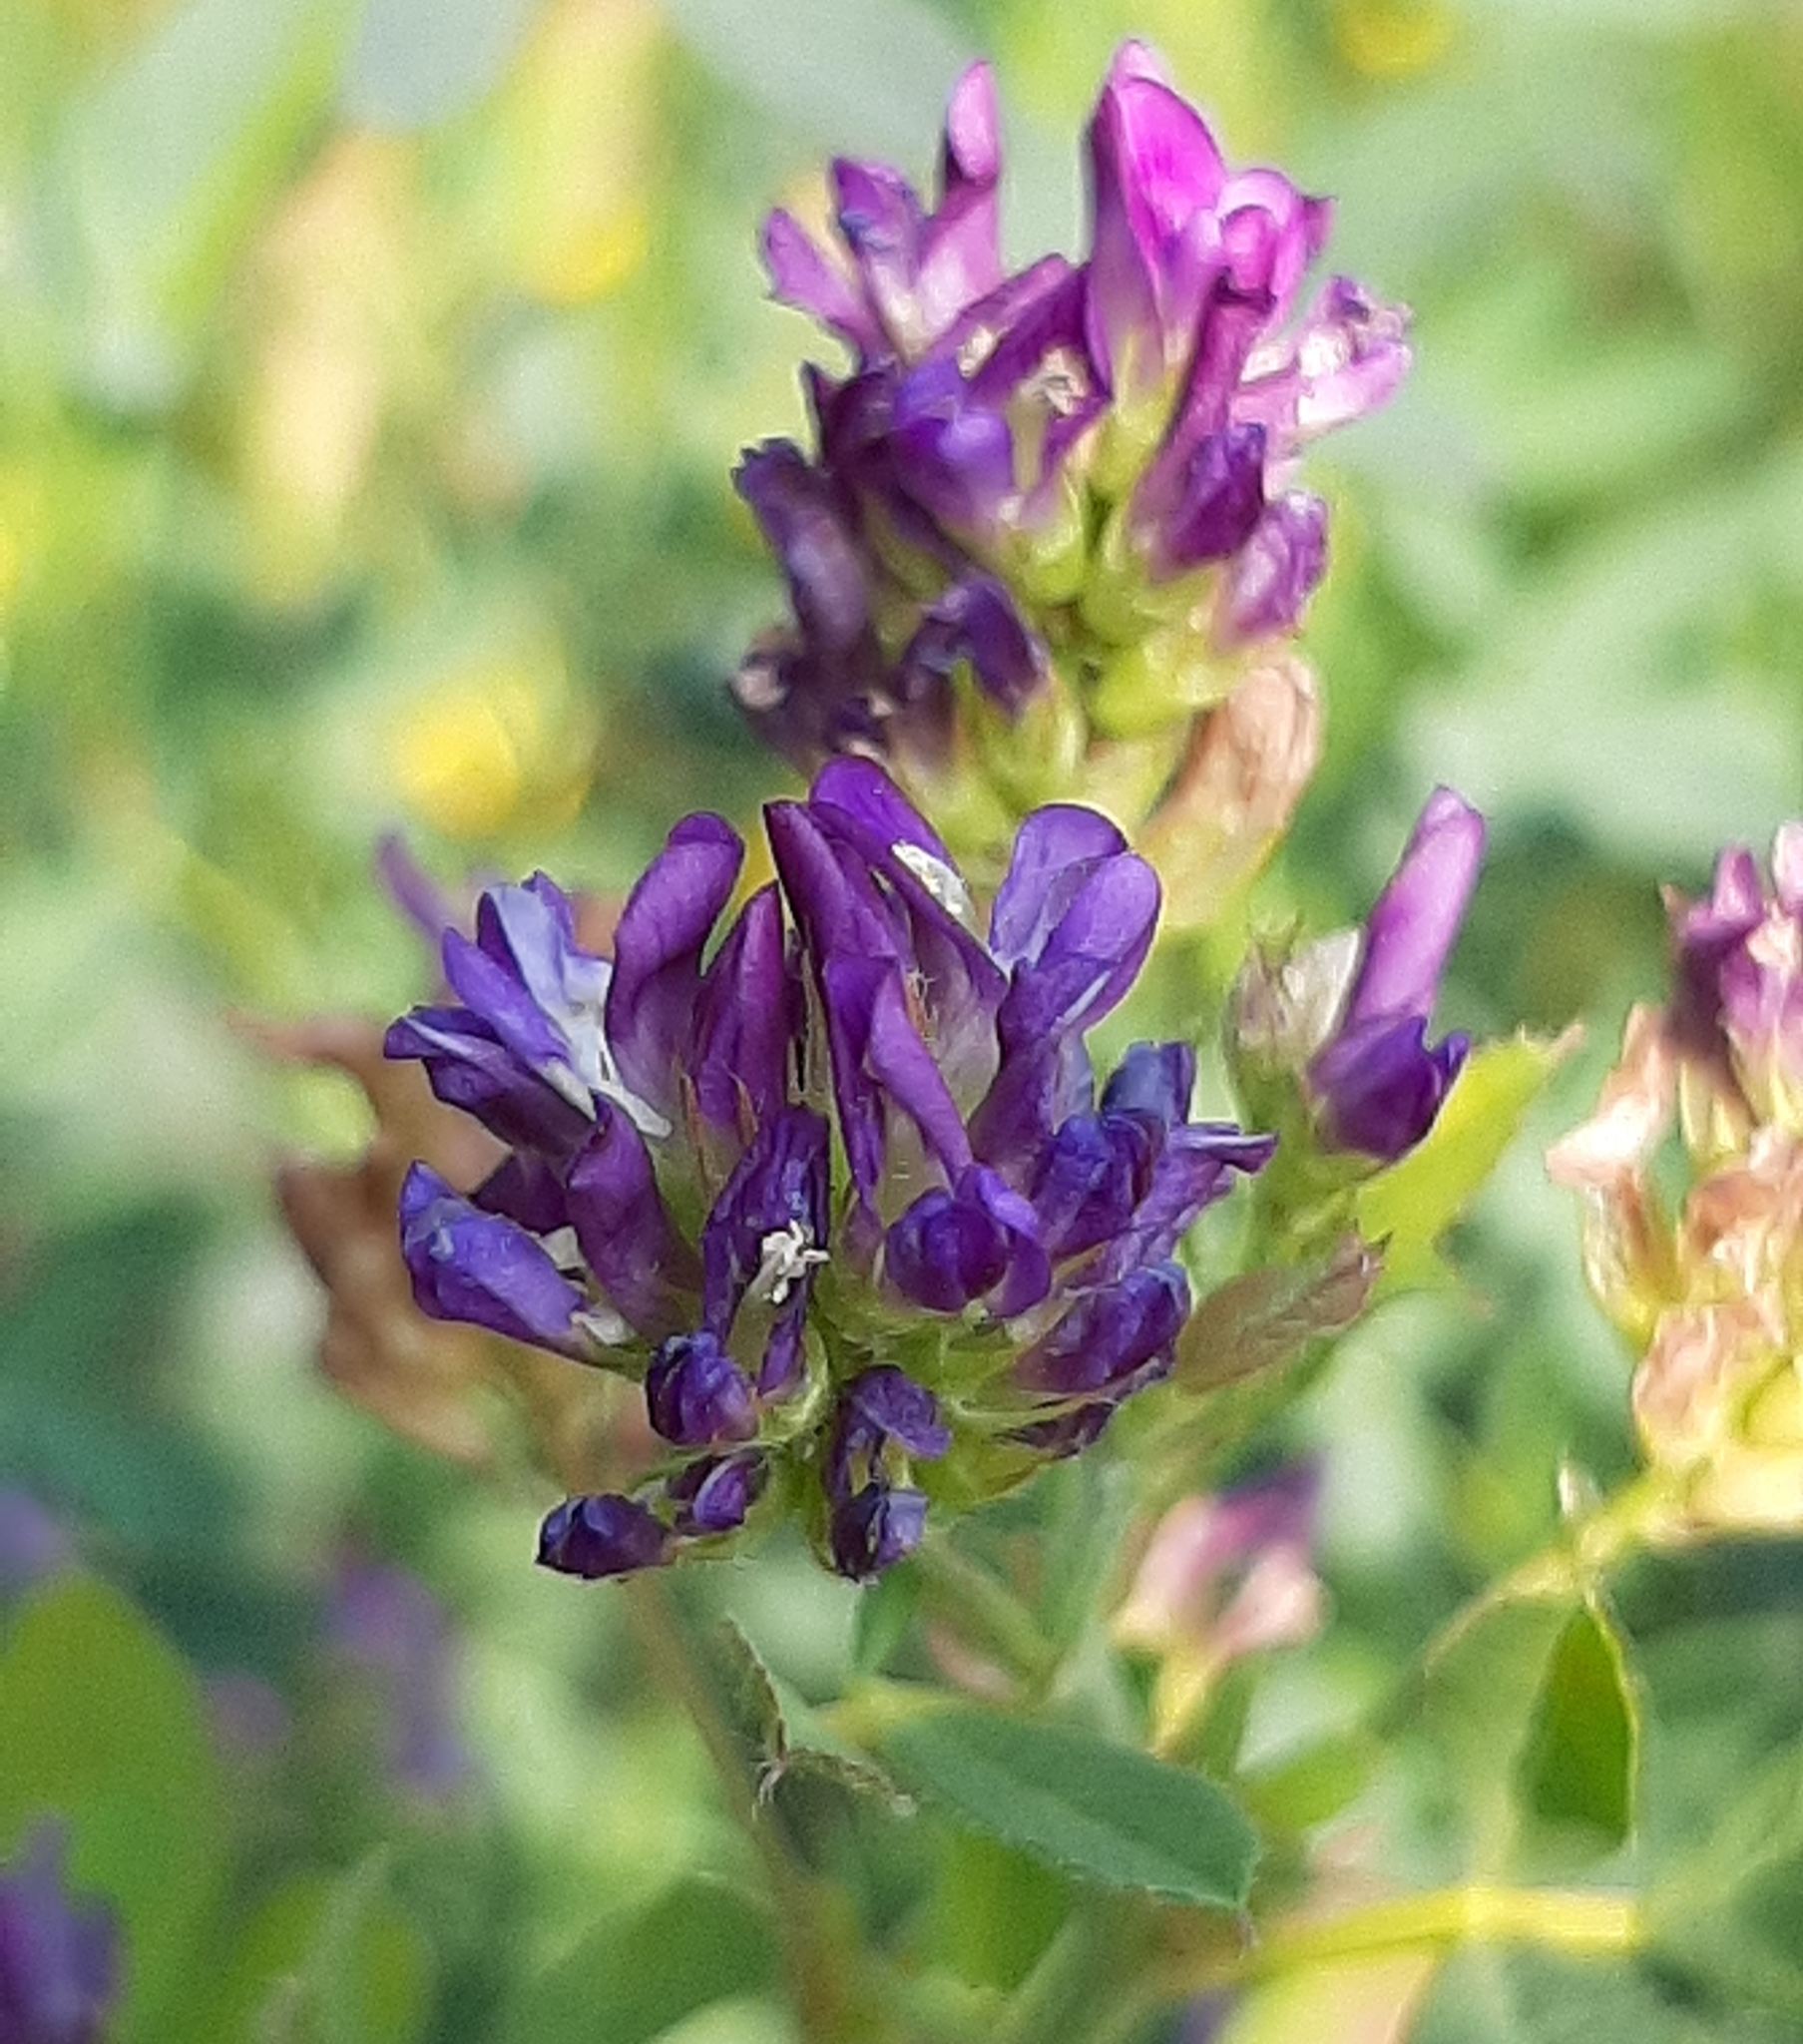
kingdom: Plantae
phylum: Tracheophyta
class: Magnoliopsida
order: Fabales
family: Fabaceae
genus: Medicago
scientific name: Medicago sativa
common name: Alfalfa
